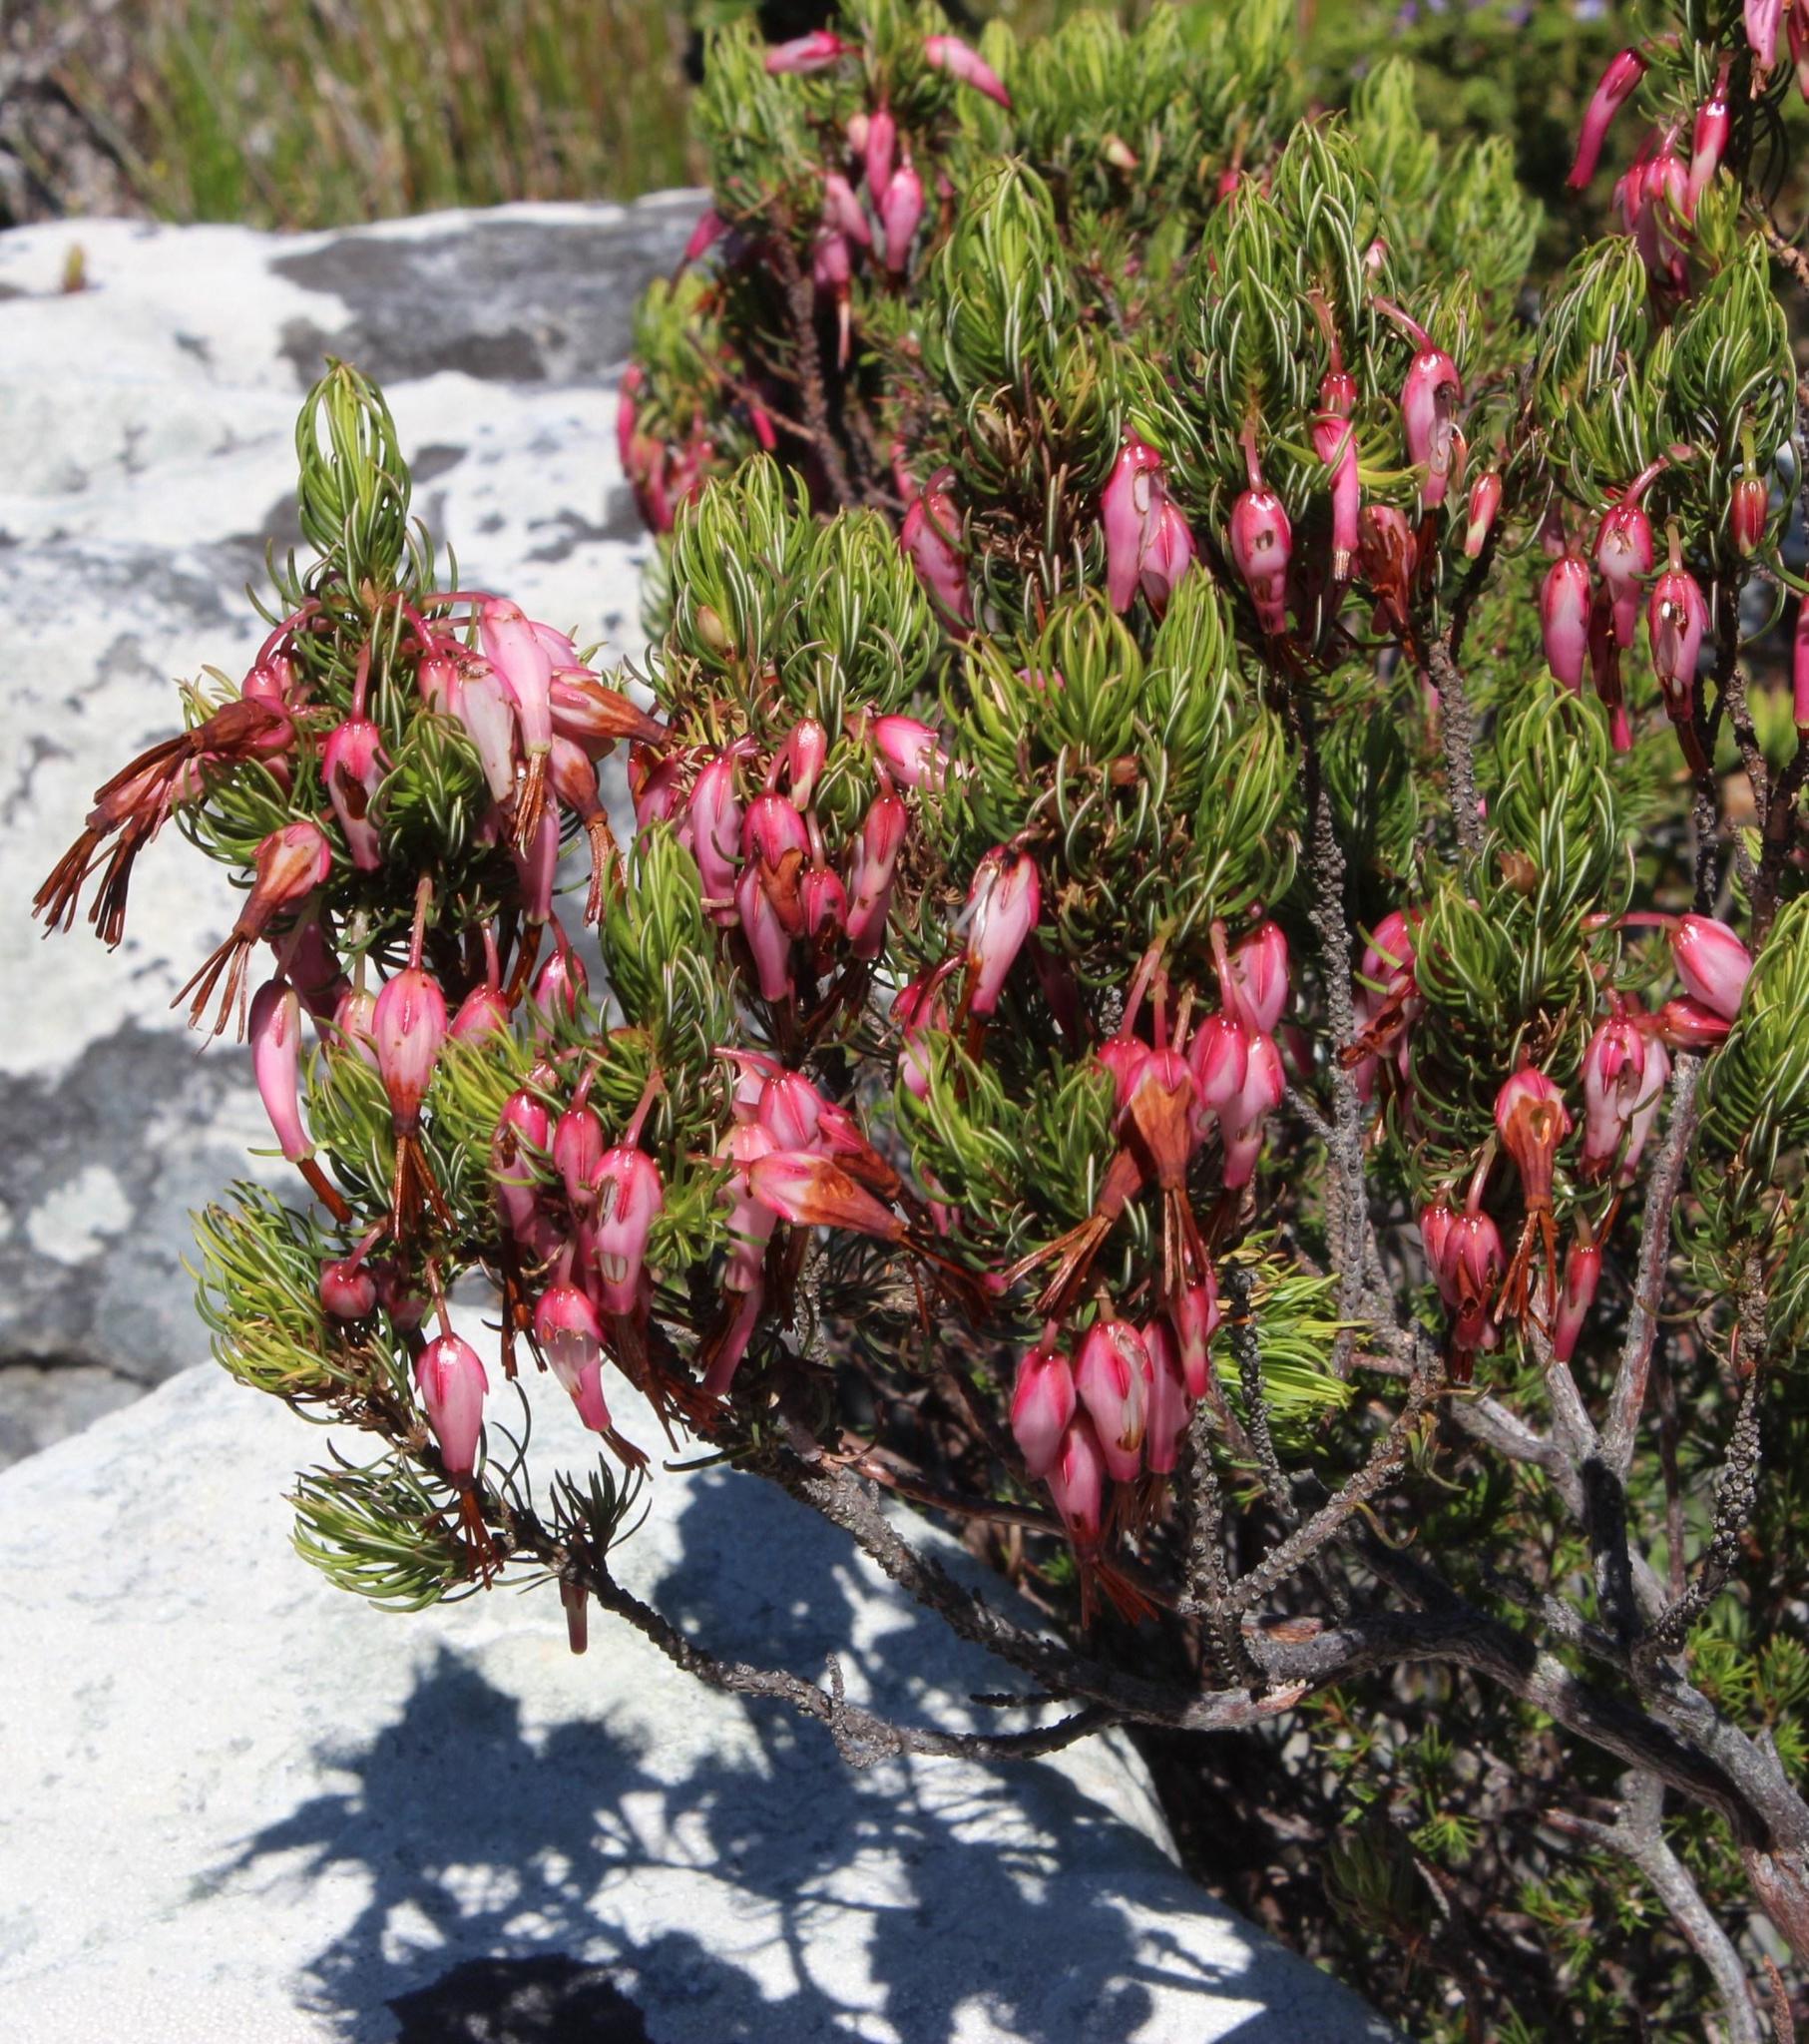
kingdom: Plantae
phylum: Tracheophyta
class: Magnoliopsida
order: Ericales
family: Ericaceae
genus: Erica
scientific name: Erica plukenetii
